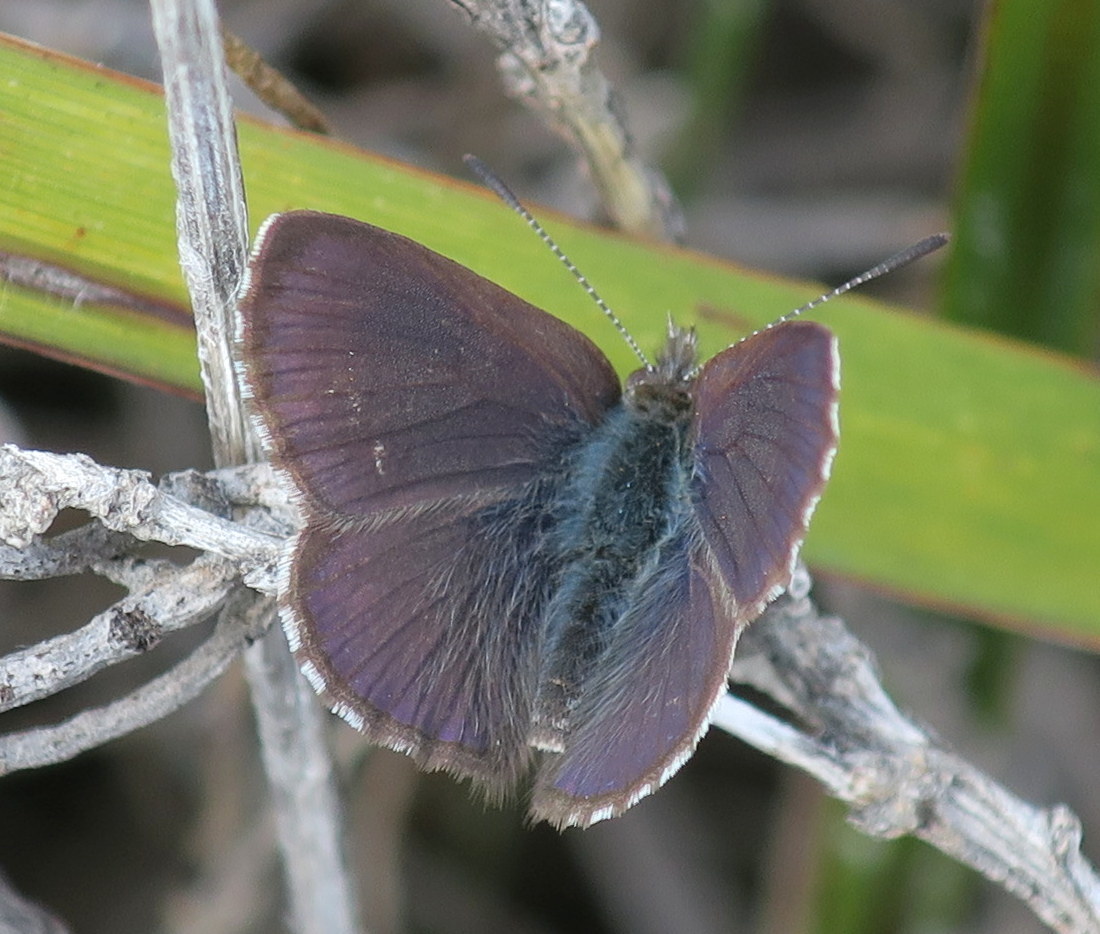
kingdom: Animalia
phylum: Arthropoda
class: Insecta
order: Lepidoptera
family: Lycaenidae
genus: Candalides
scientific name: Candalides
